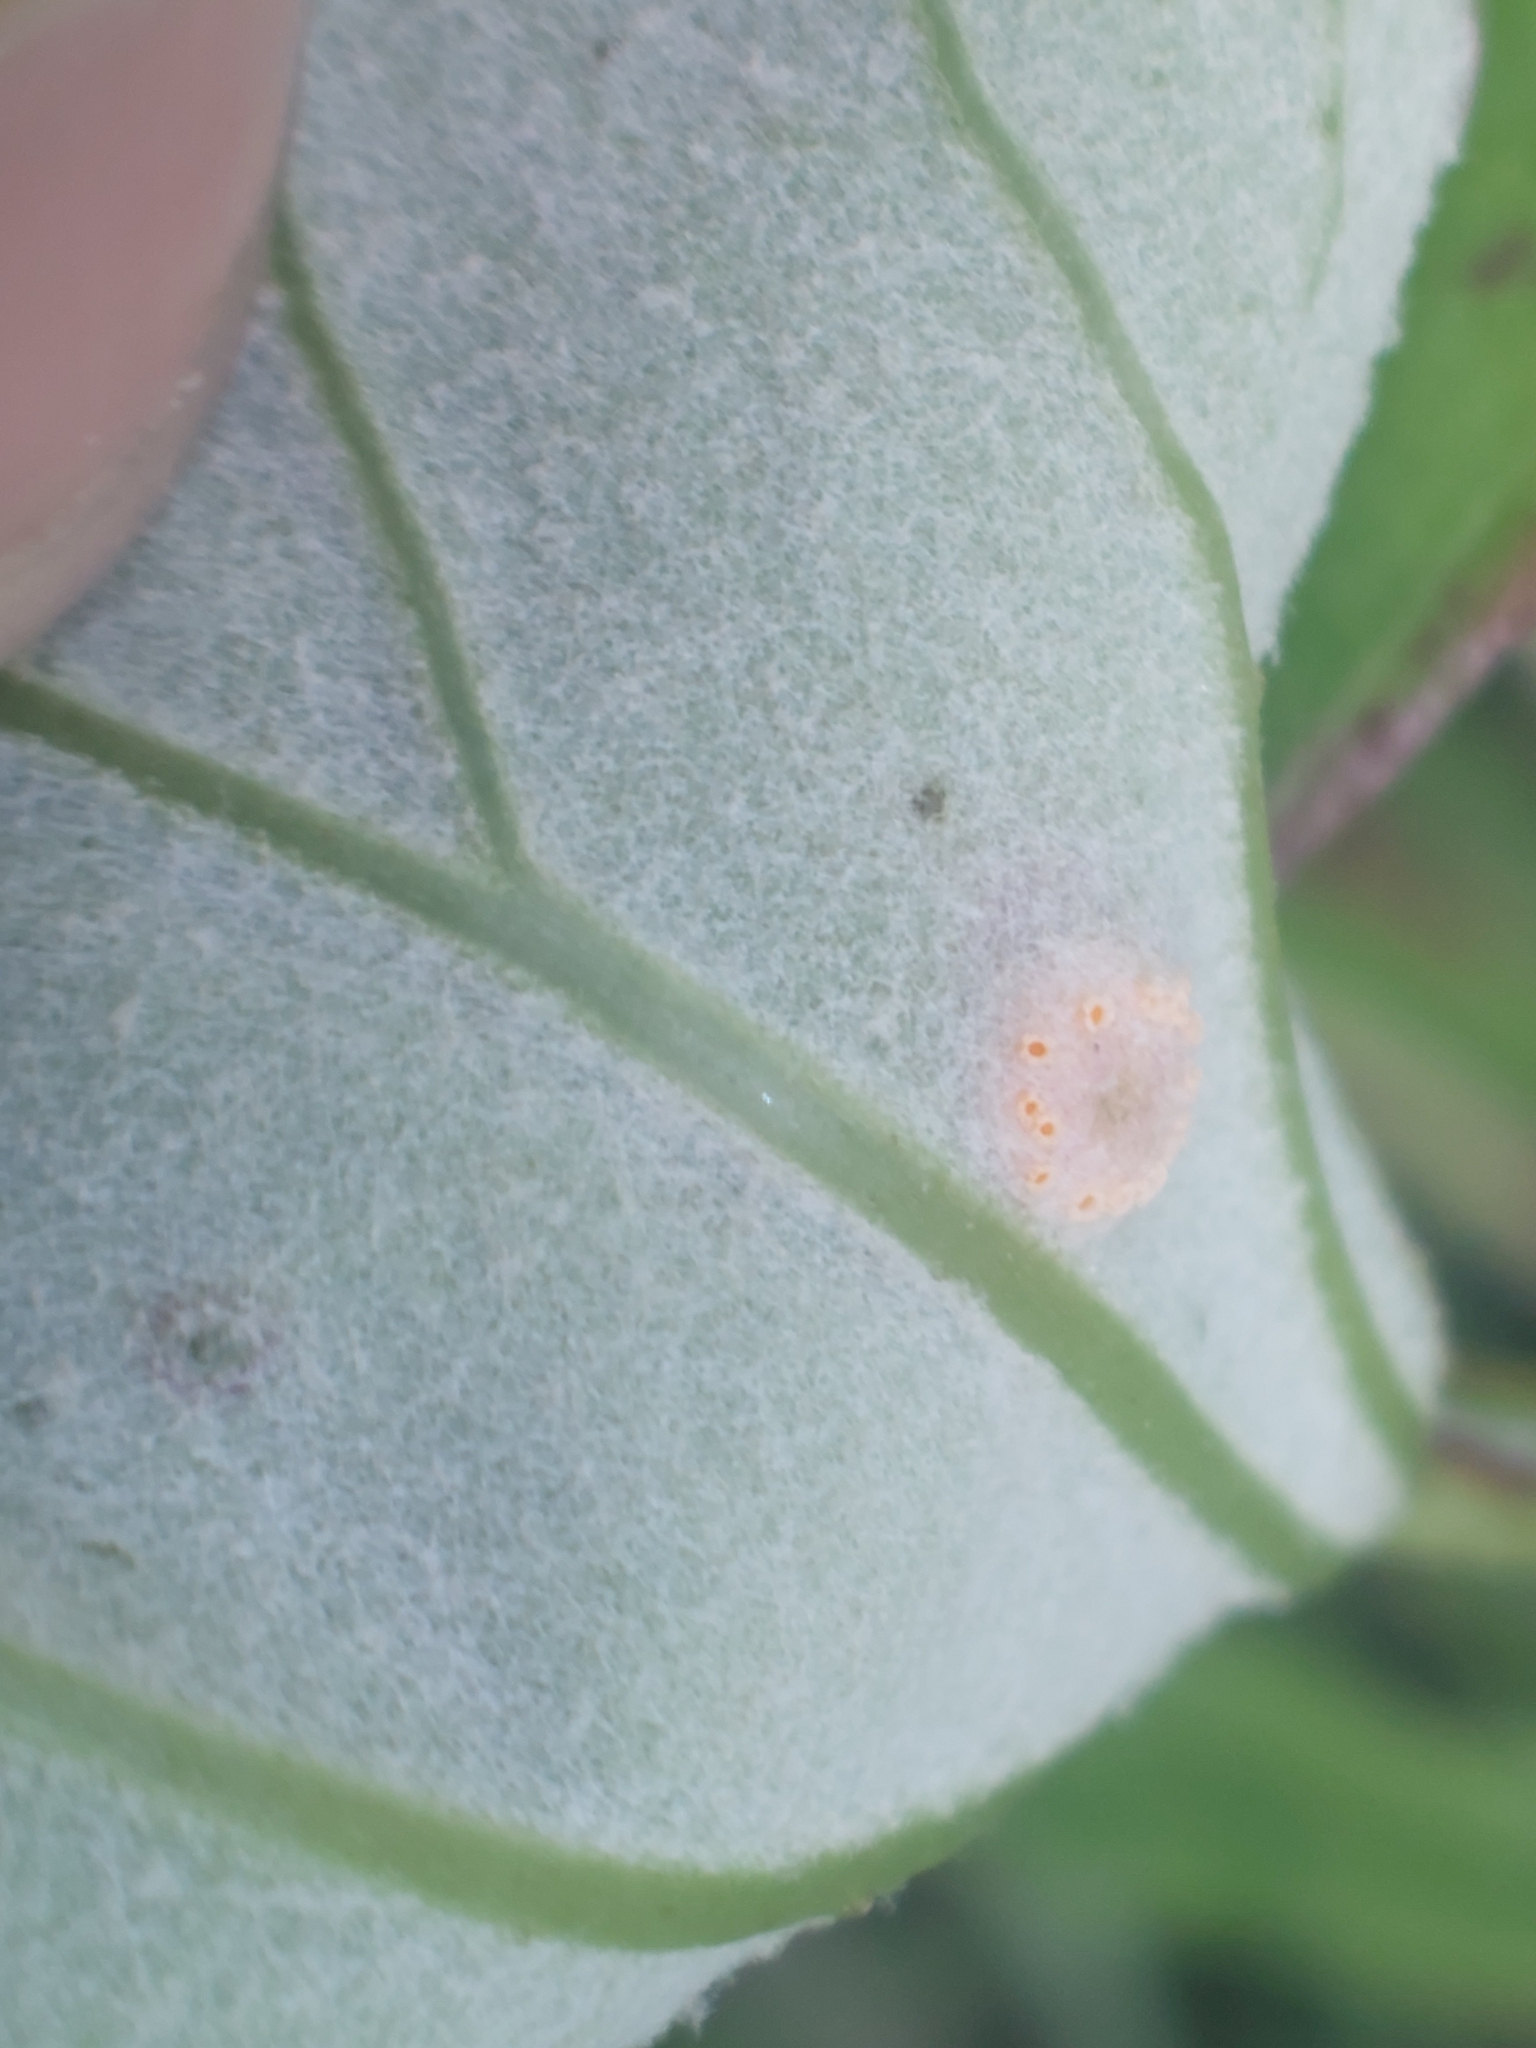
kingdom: Fungi
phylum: Basidiomycota
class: Pucciniomycetes
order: Pucciniales
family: Pucciniaceae
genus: Puccinia
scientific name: Puccinia poarum
